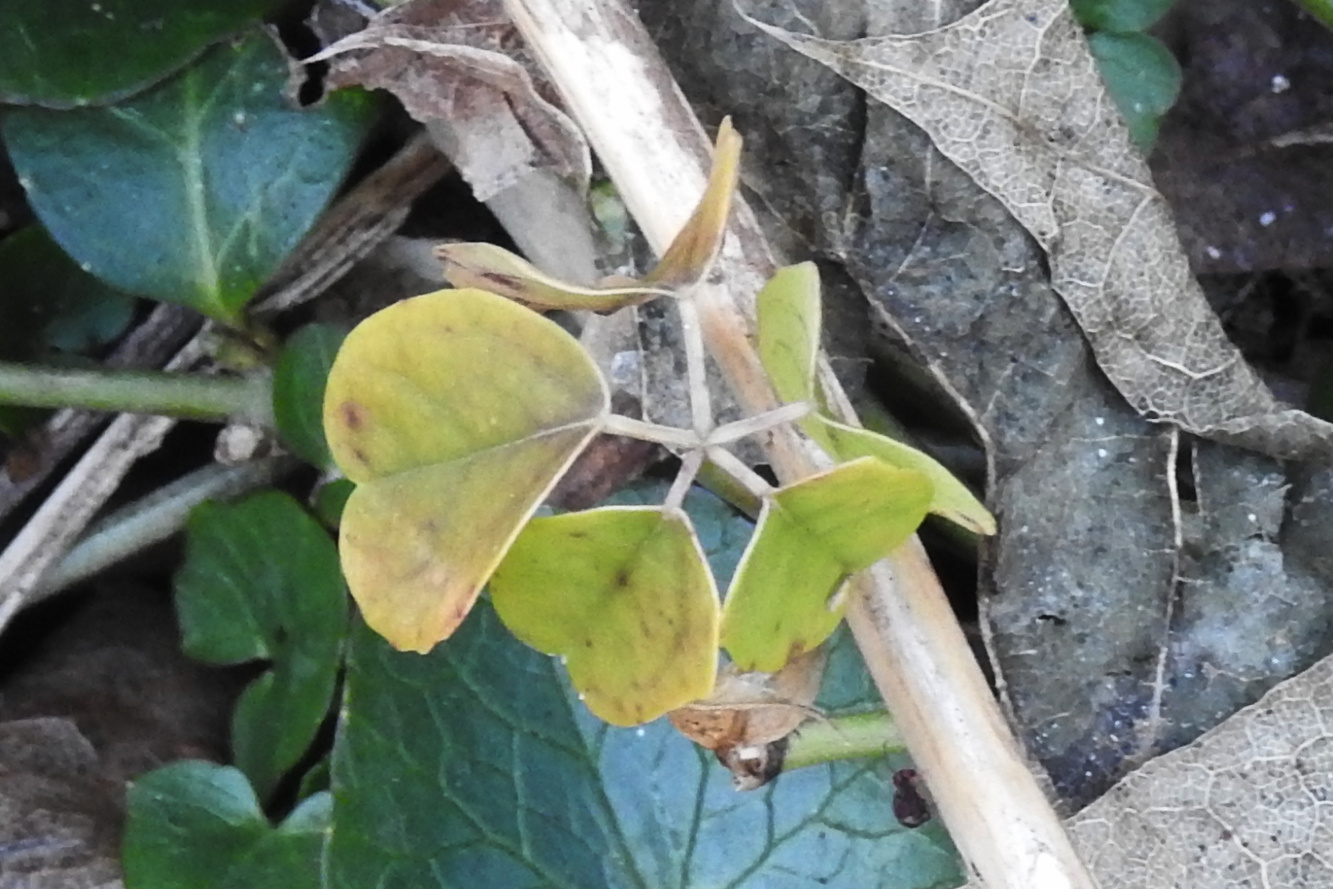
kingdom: Plantae
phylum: Tracheophyta
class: Magnoliopsida
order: Ranunculales
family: Lardizabalaceae
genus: Akebia
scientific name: Akebia quinata
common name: Five-leaf akebia
